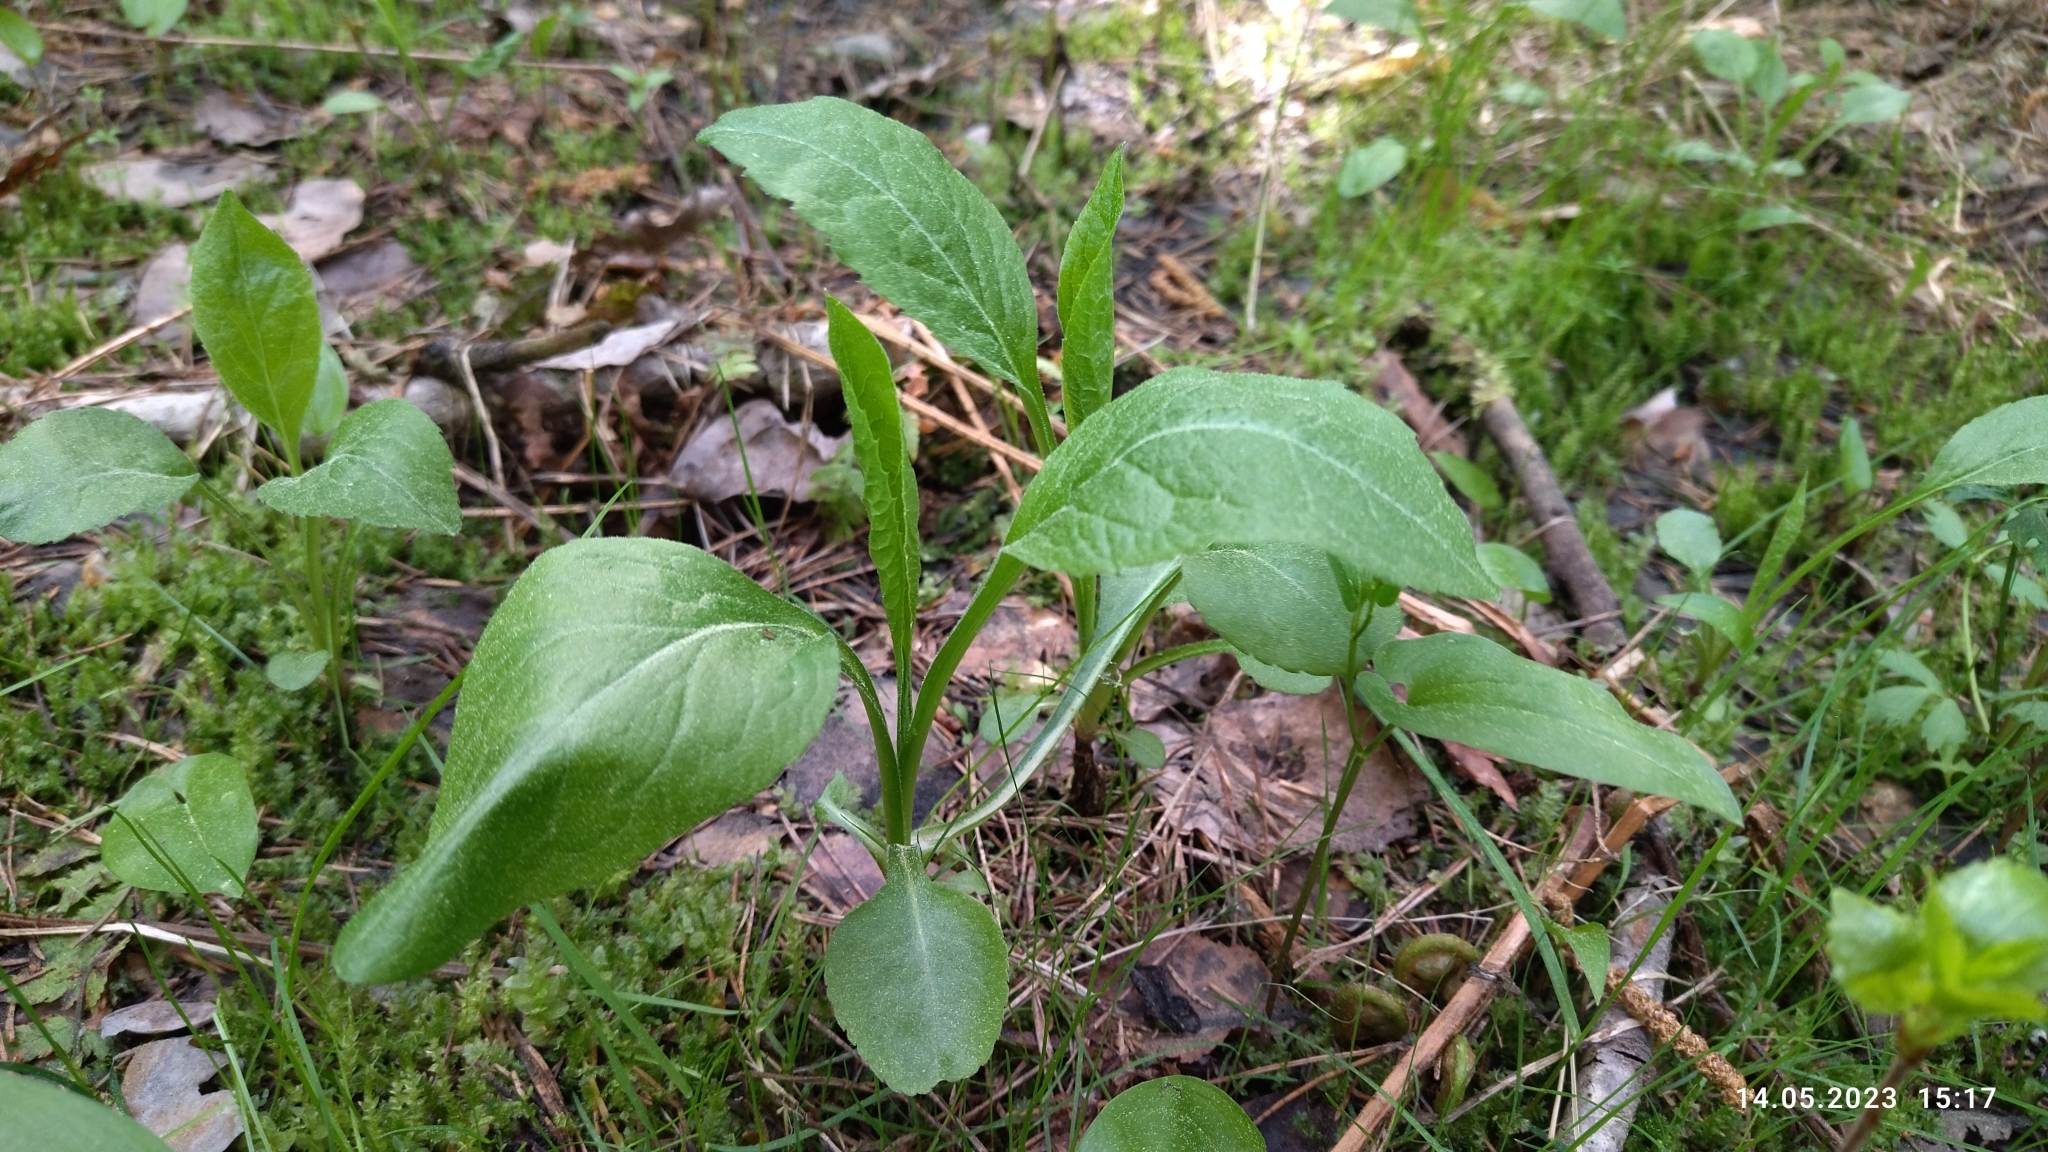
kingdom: Plantae
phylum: Tracheophyta
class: Magnoliopsida
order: Asterales
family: Asteraceae
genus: Solidago
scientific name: Solidago virgaurea
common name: Goldenrod
